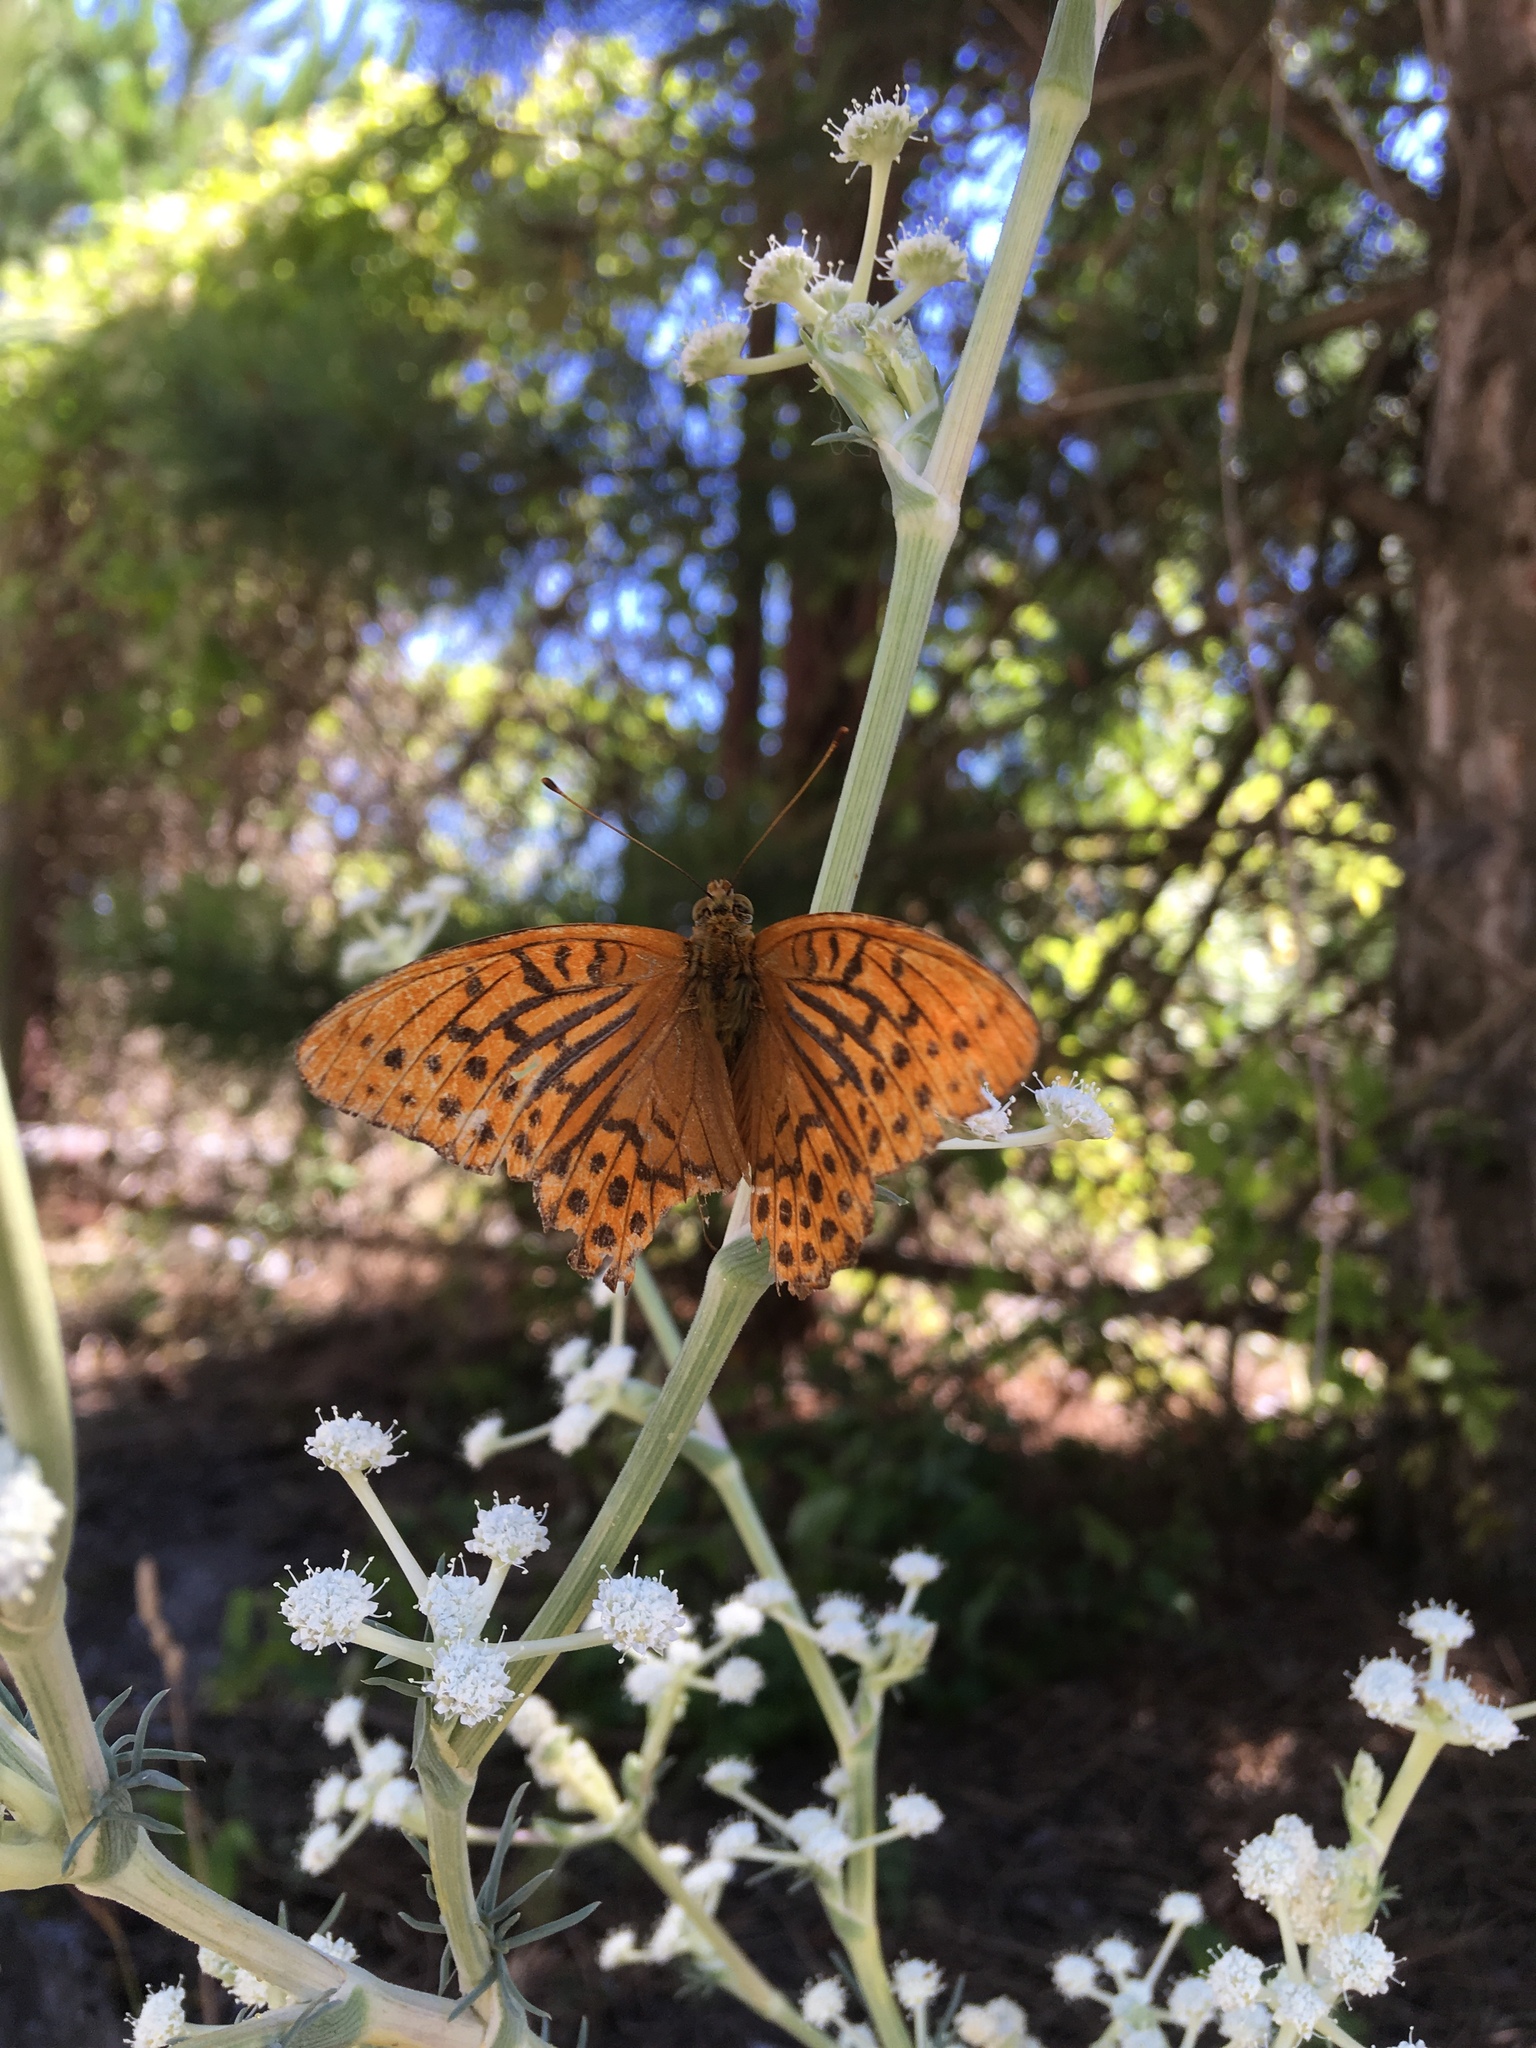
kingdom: Animalia
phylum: Arthropoda
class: Insecta
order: Lepidoptera
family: Nymphalidae
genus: Argynnis
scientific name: Argynnis paphia
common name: Silver-washed fritillary
